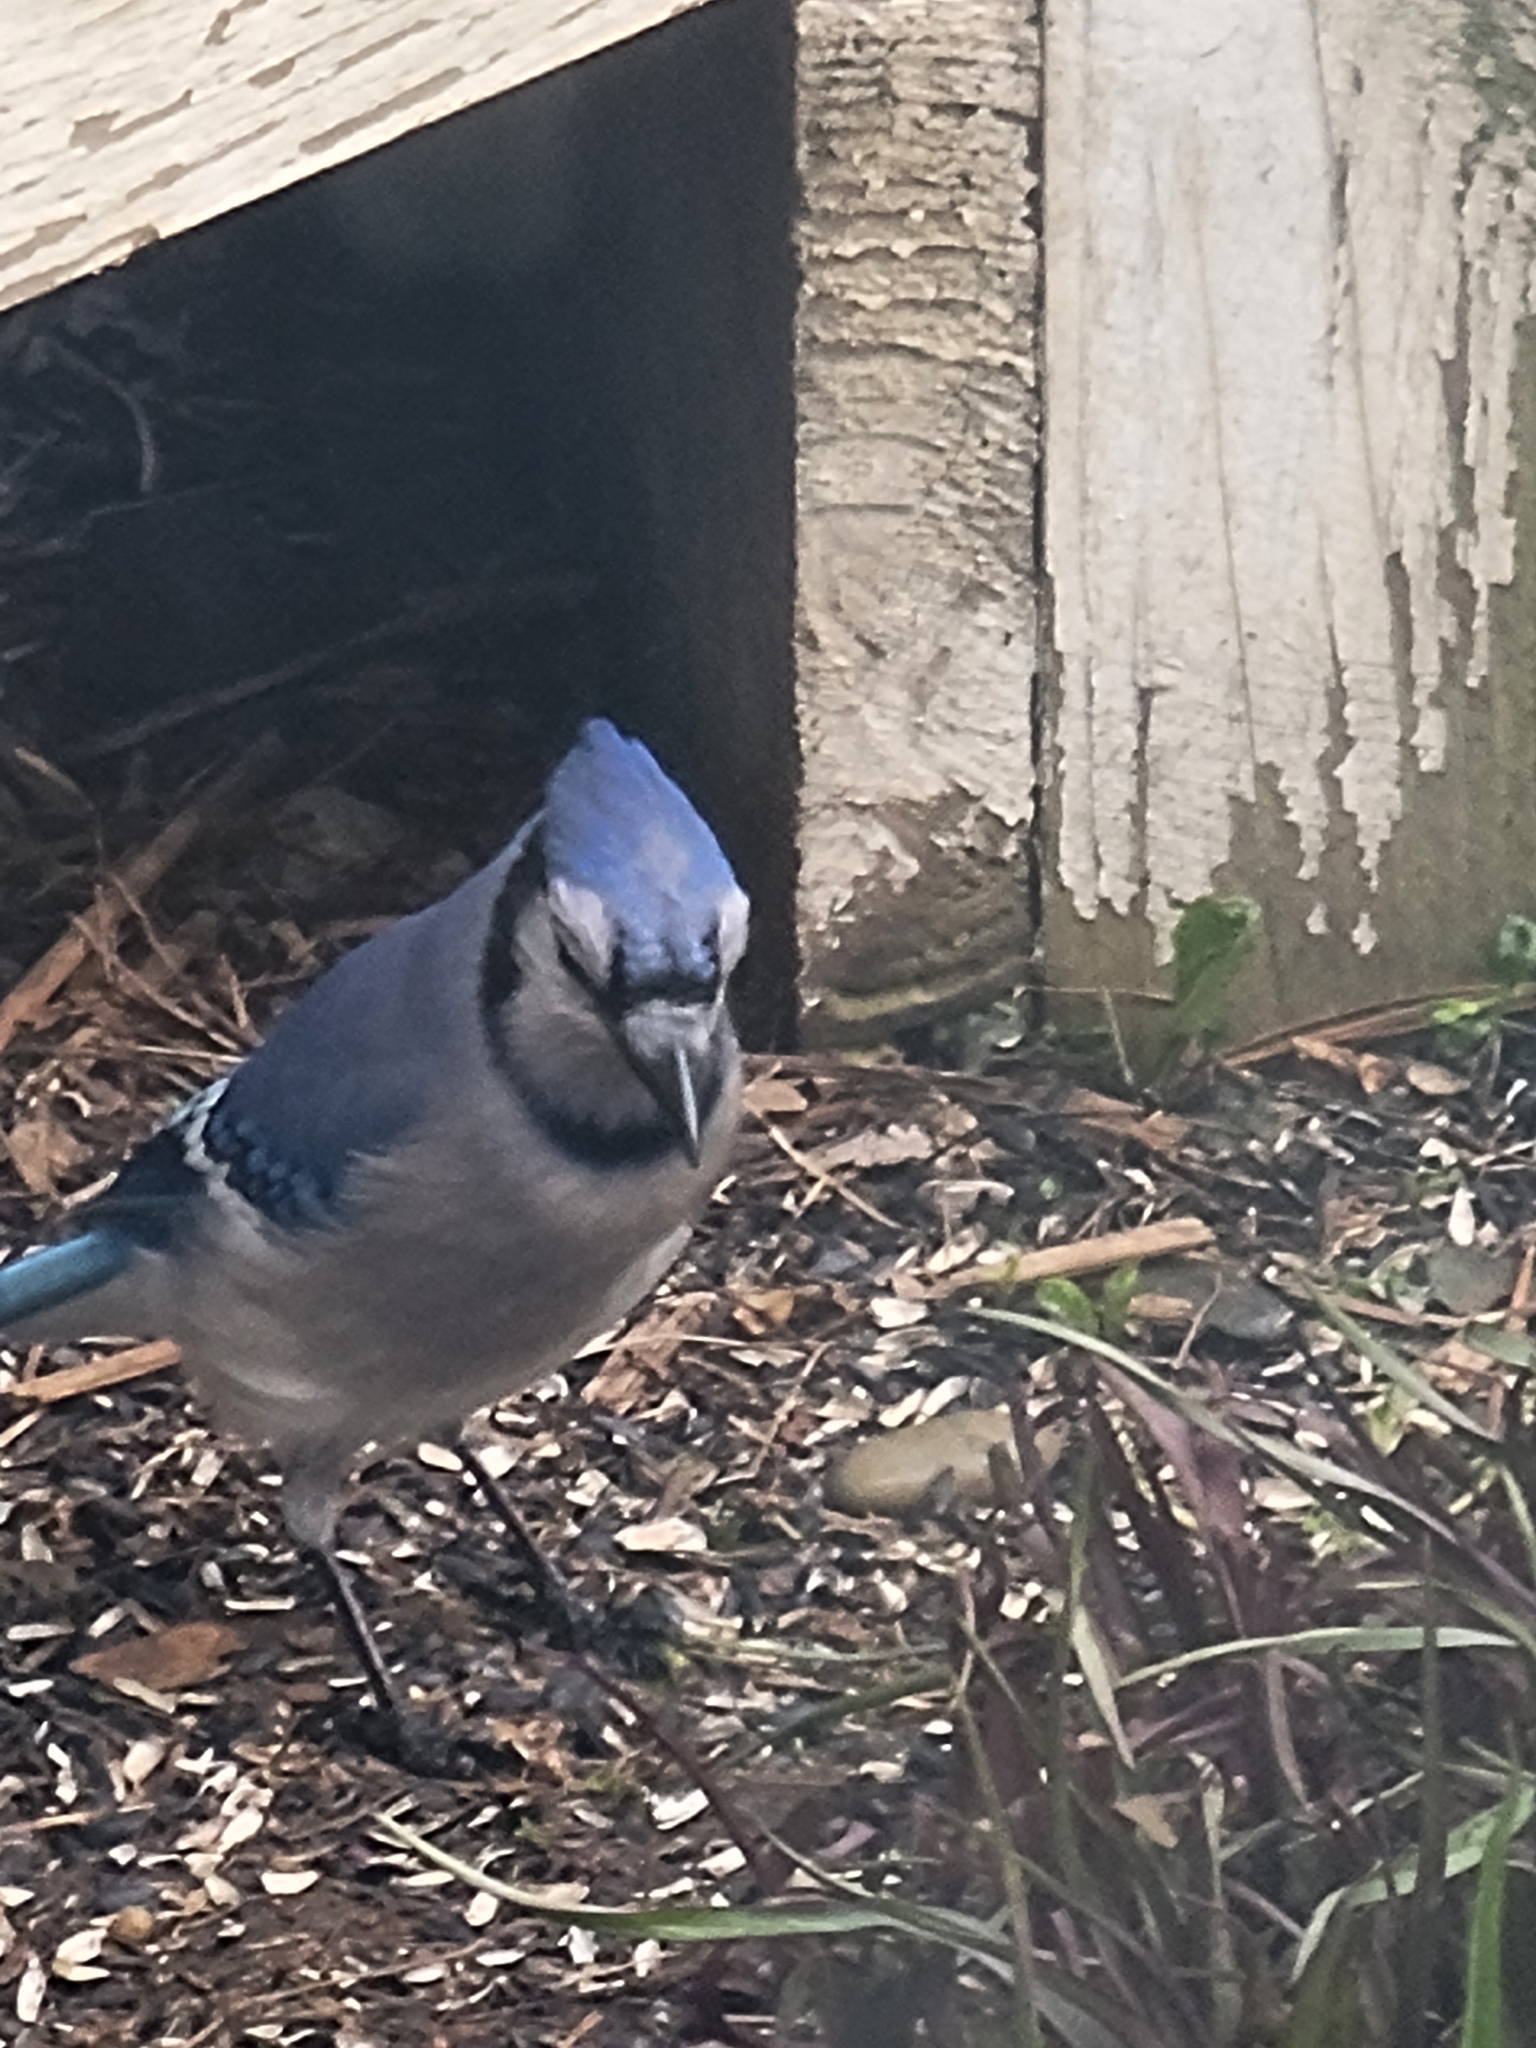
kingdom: Animalia
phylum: Chordata
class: Aves
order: Passeriformes
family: Corvidae
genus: Cyanocitta
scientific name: Cyanocitta cristata
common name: Blue jay
